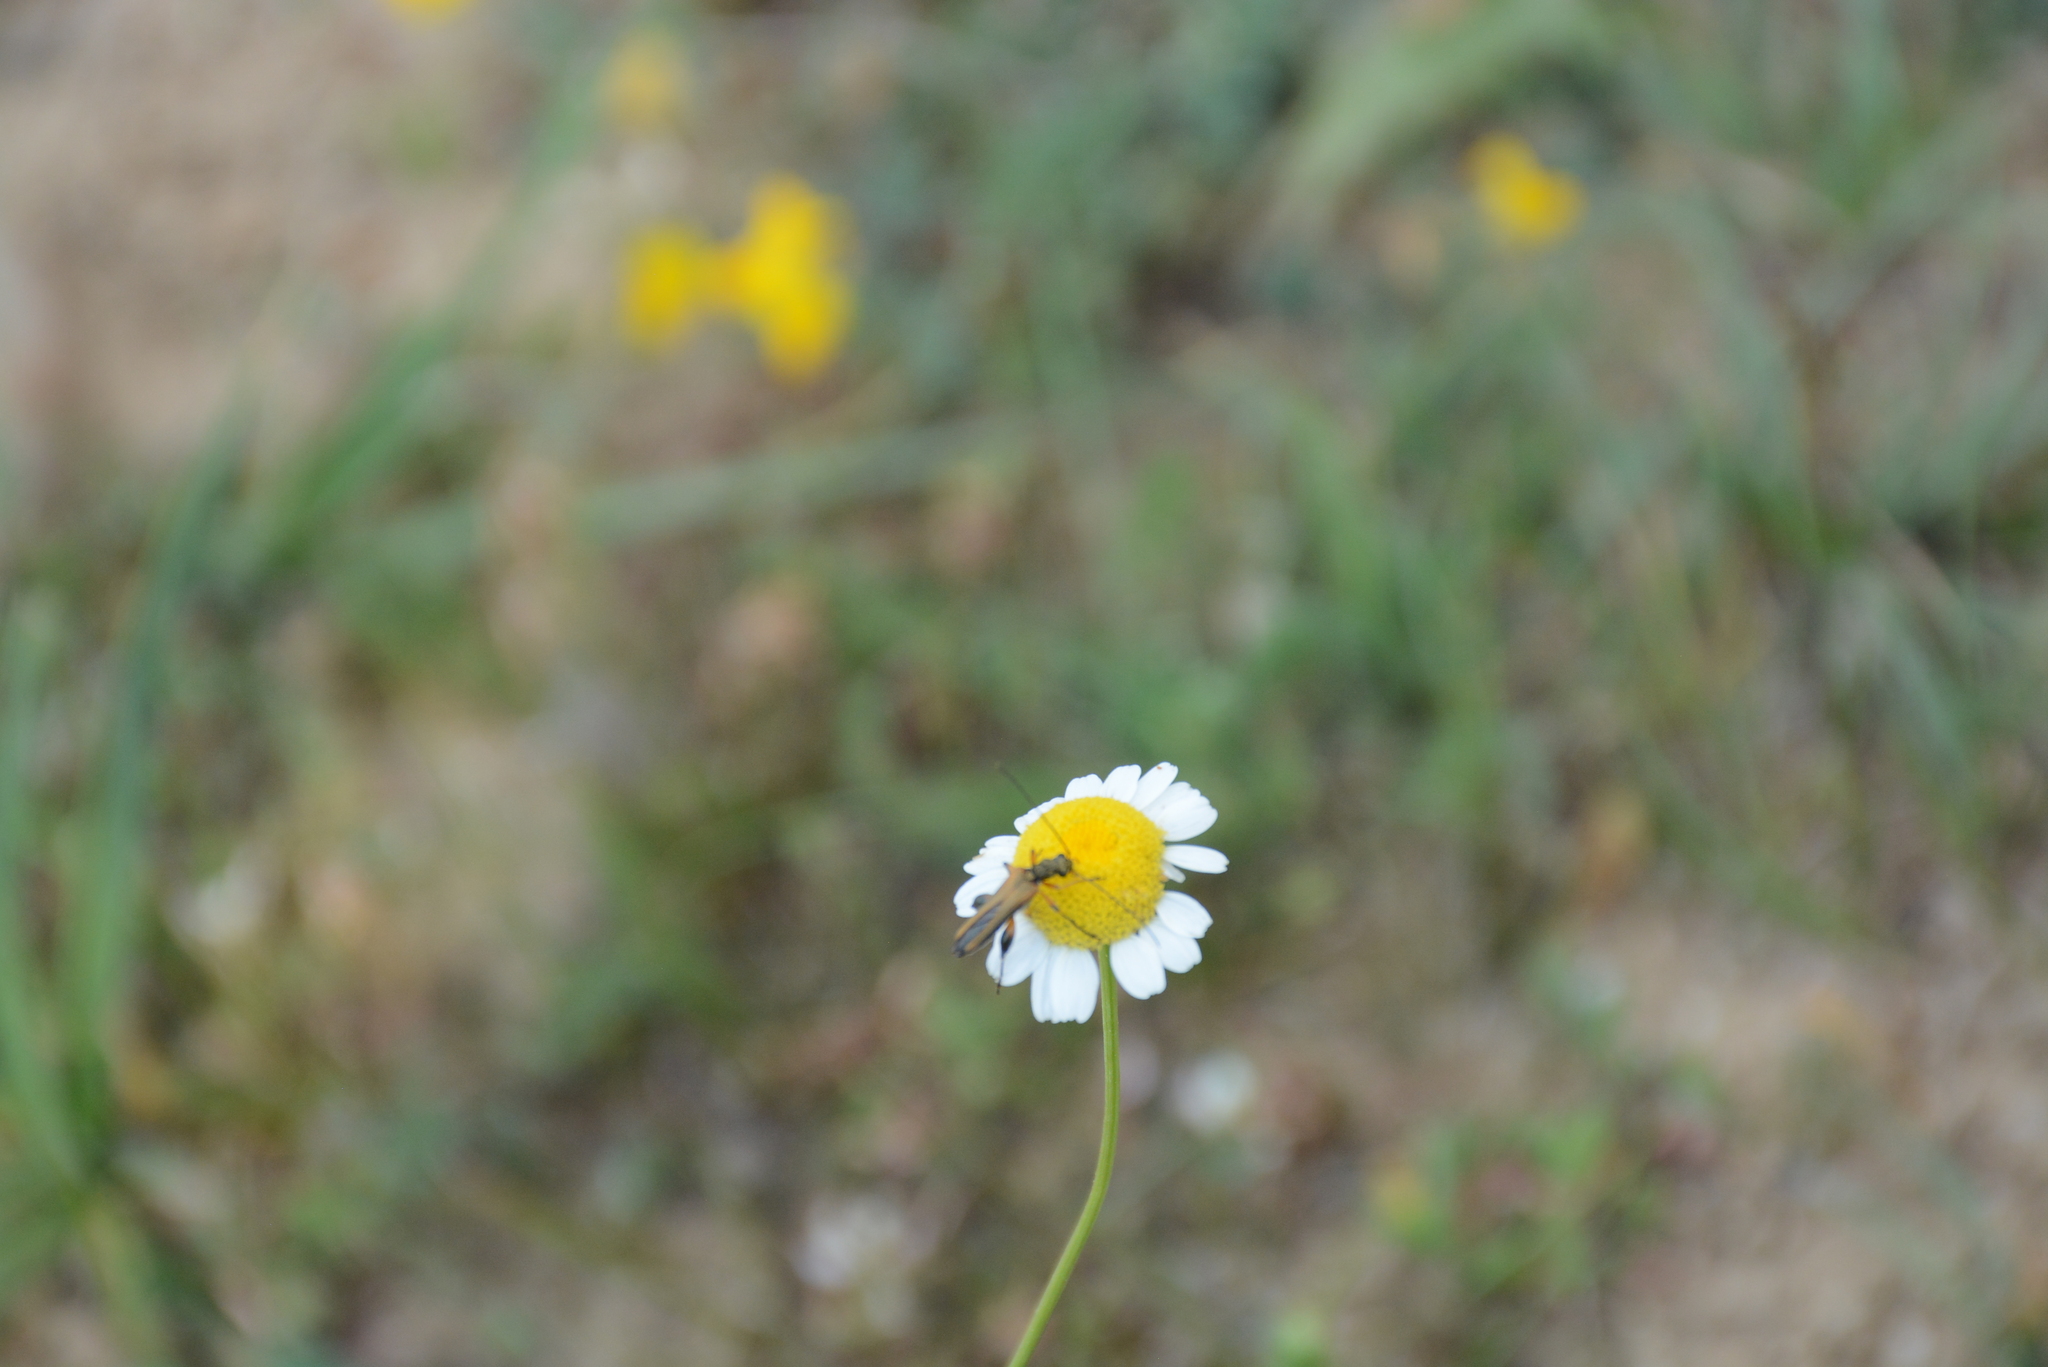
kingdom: Animalia
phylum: Arthropoda
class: Insecta
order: Coleoptera
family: Oedemeridae
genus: Oedemera
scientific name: Oedemera podagrariae
